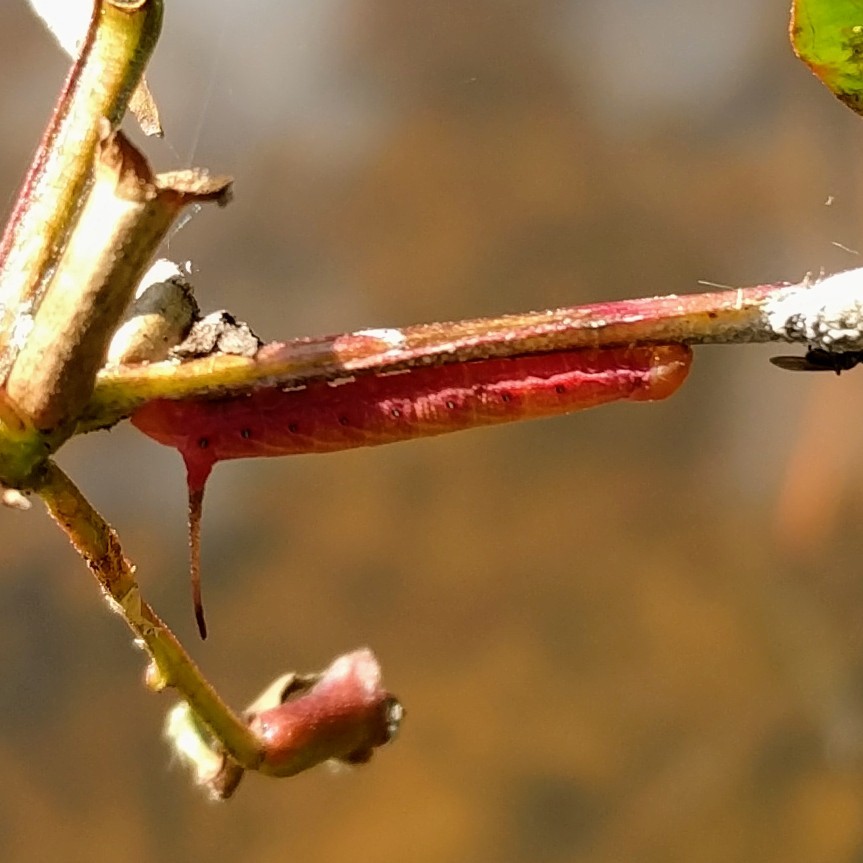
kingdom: Animalia
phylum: Arthropoda
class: Insecta
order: Lepidoptera
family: Sphingidae
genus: Eumorpha
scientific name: Eumorpha fasciatus
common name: Banded sphinx
